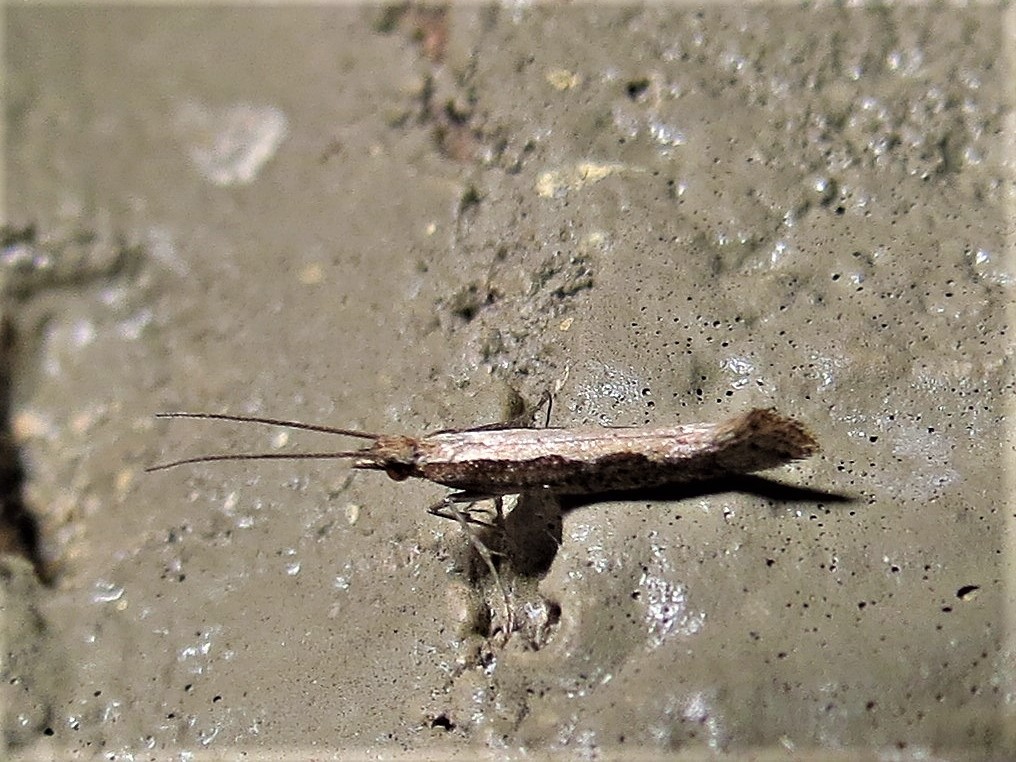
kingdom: Animalia
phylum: Arthropoda
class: Insecta
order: Lepidoptera
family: Plutellidae
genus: Plutella
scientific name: Plutella xylostella
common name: Diamond-back moth
